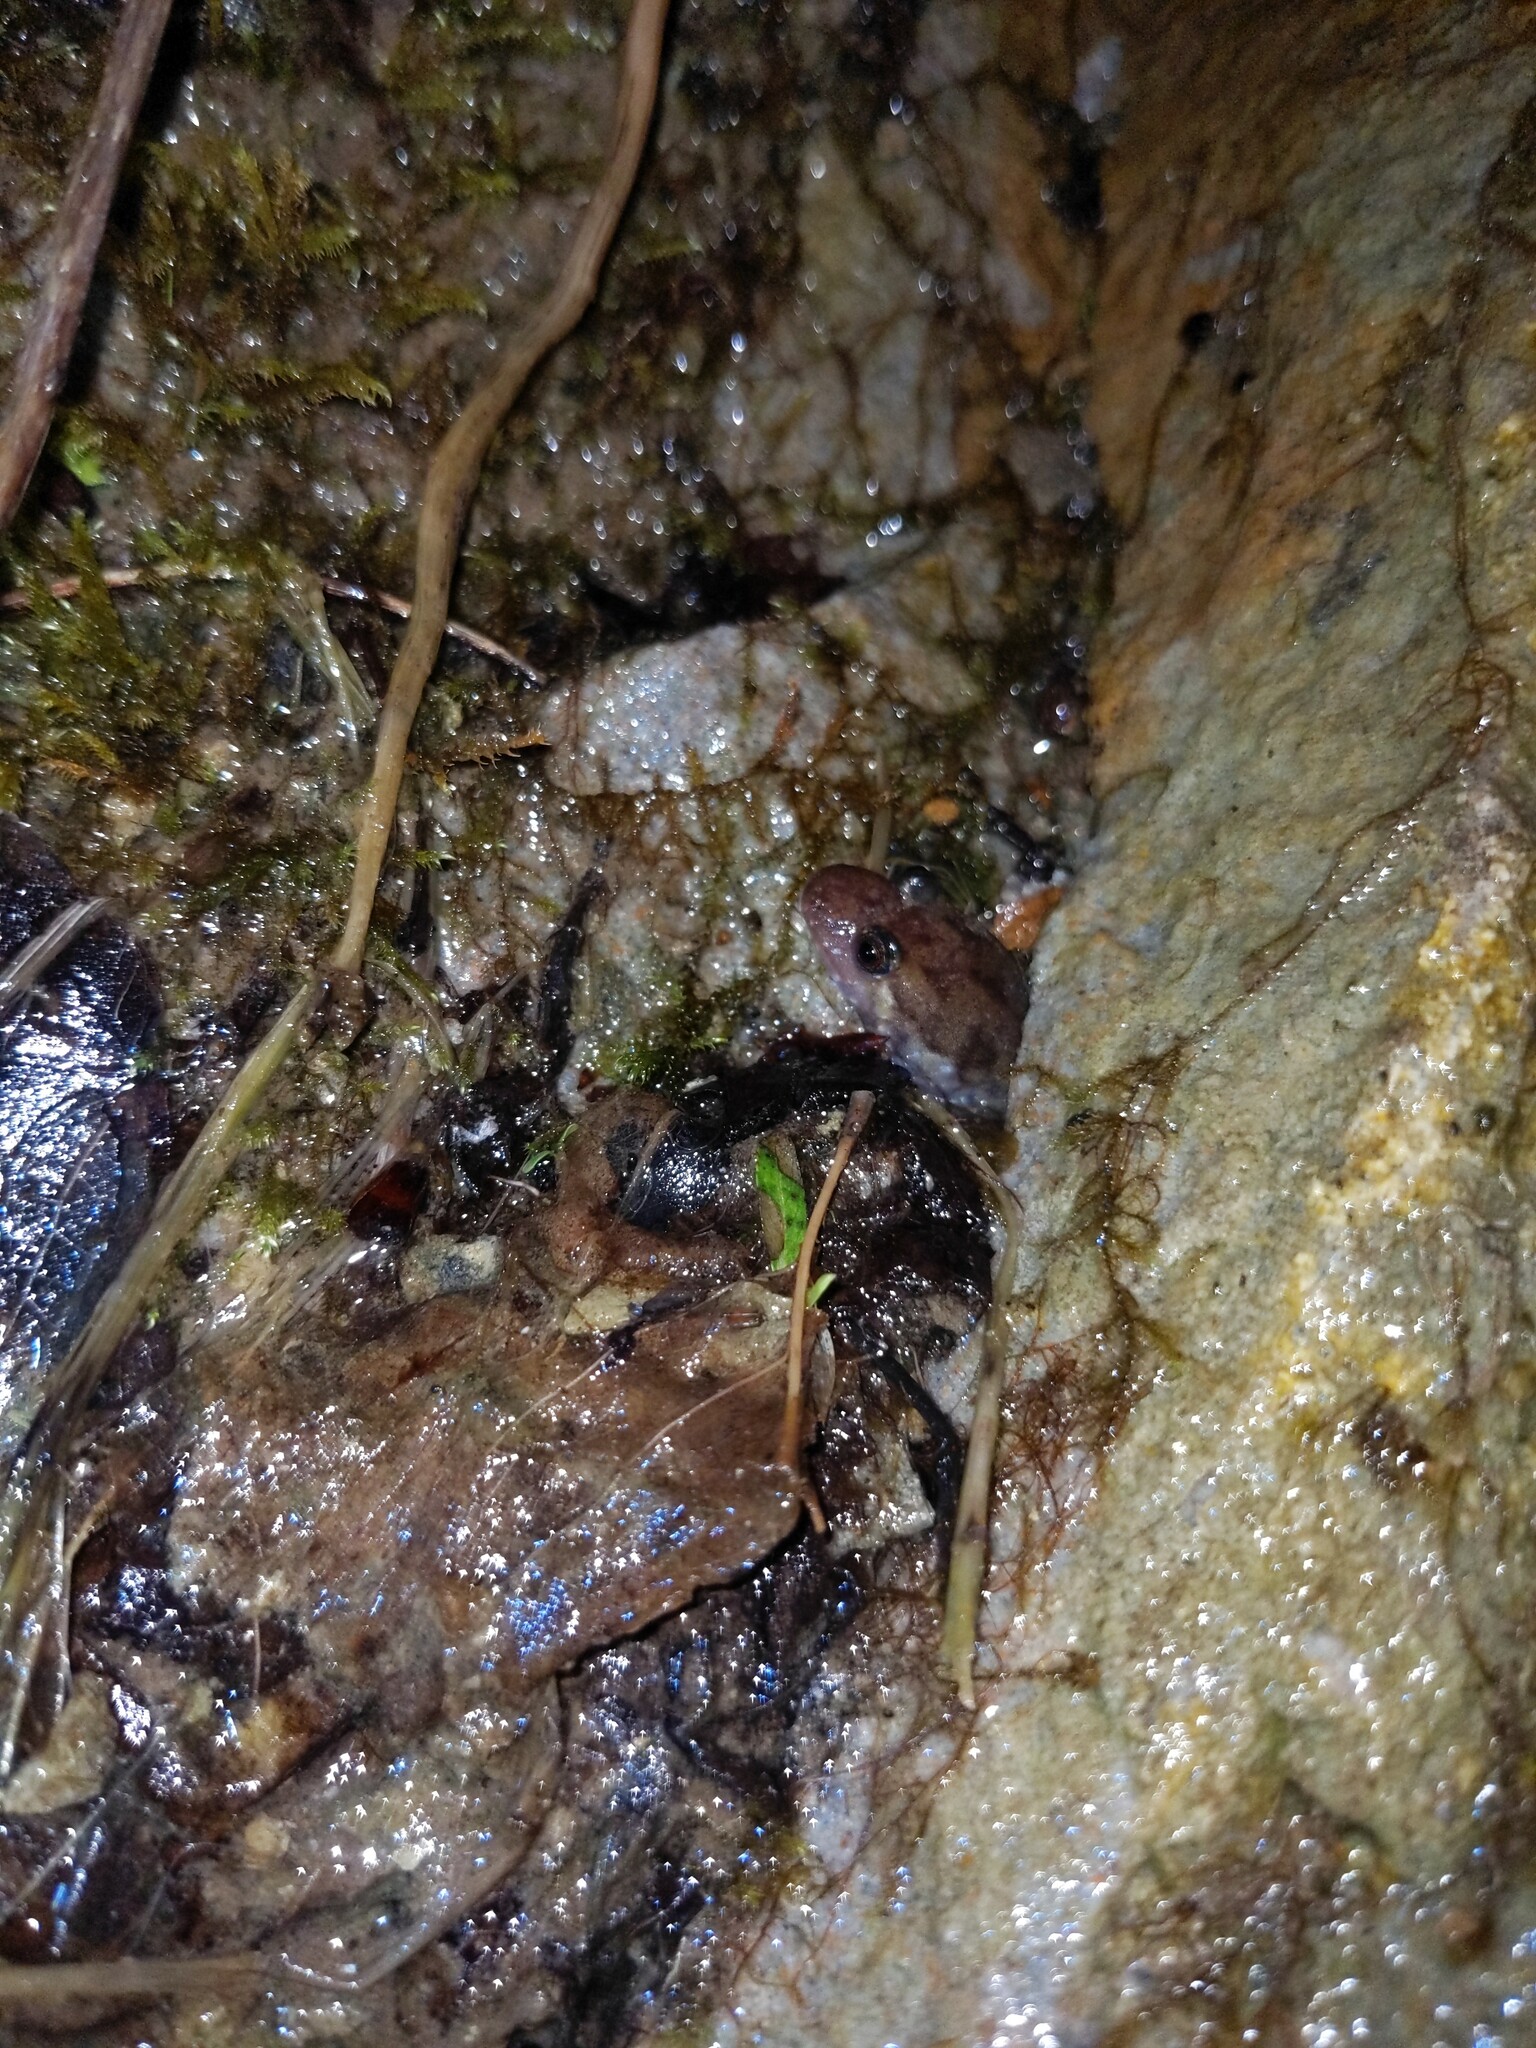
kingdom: Animalia
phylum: Chordata
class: Amphibia
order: Caudata
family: Plethodontidae
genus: Desmognathus
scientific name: Desmognathus monticola
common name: Seal salamander
